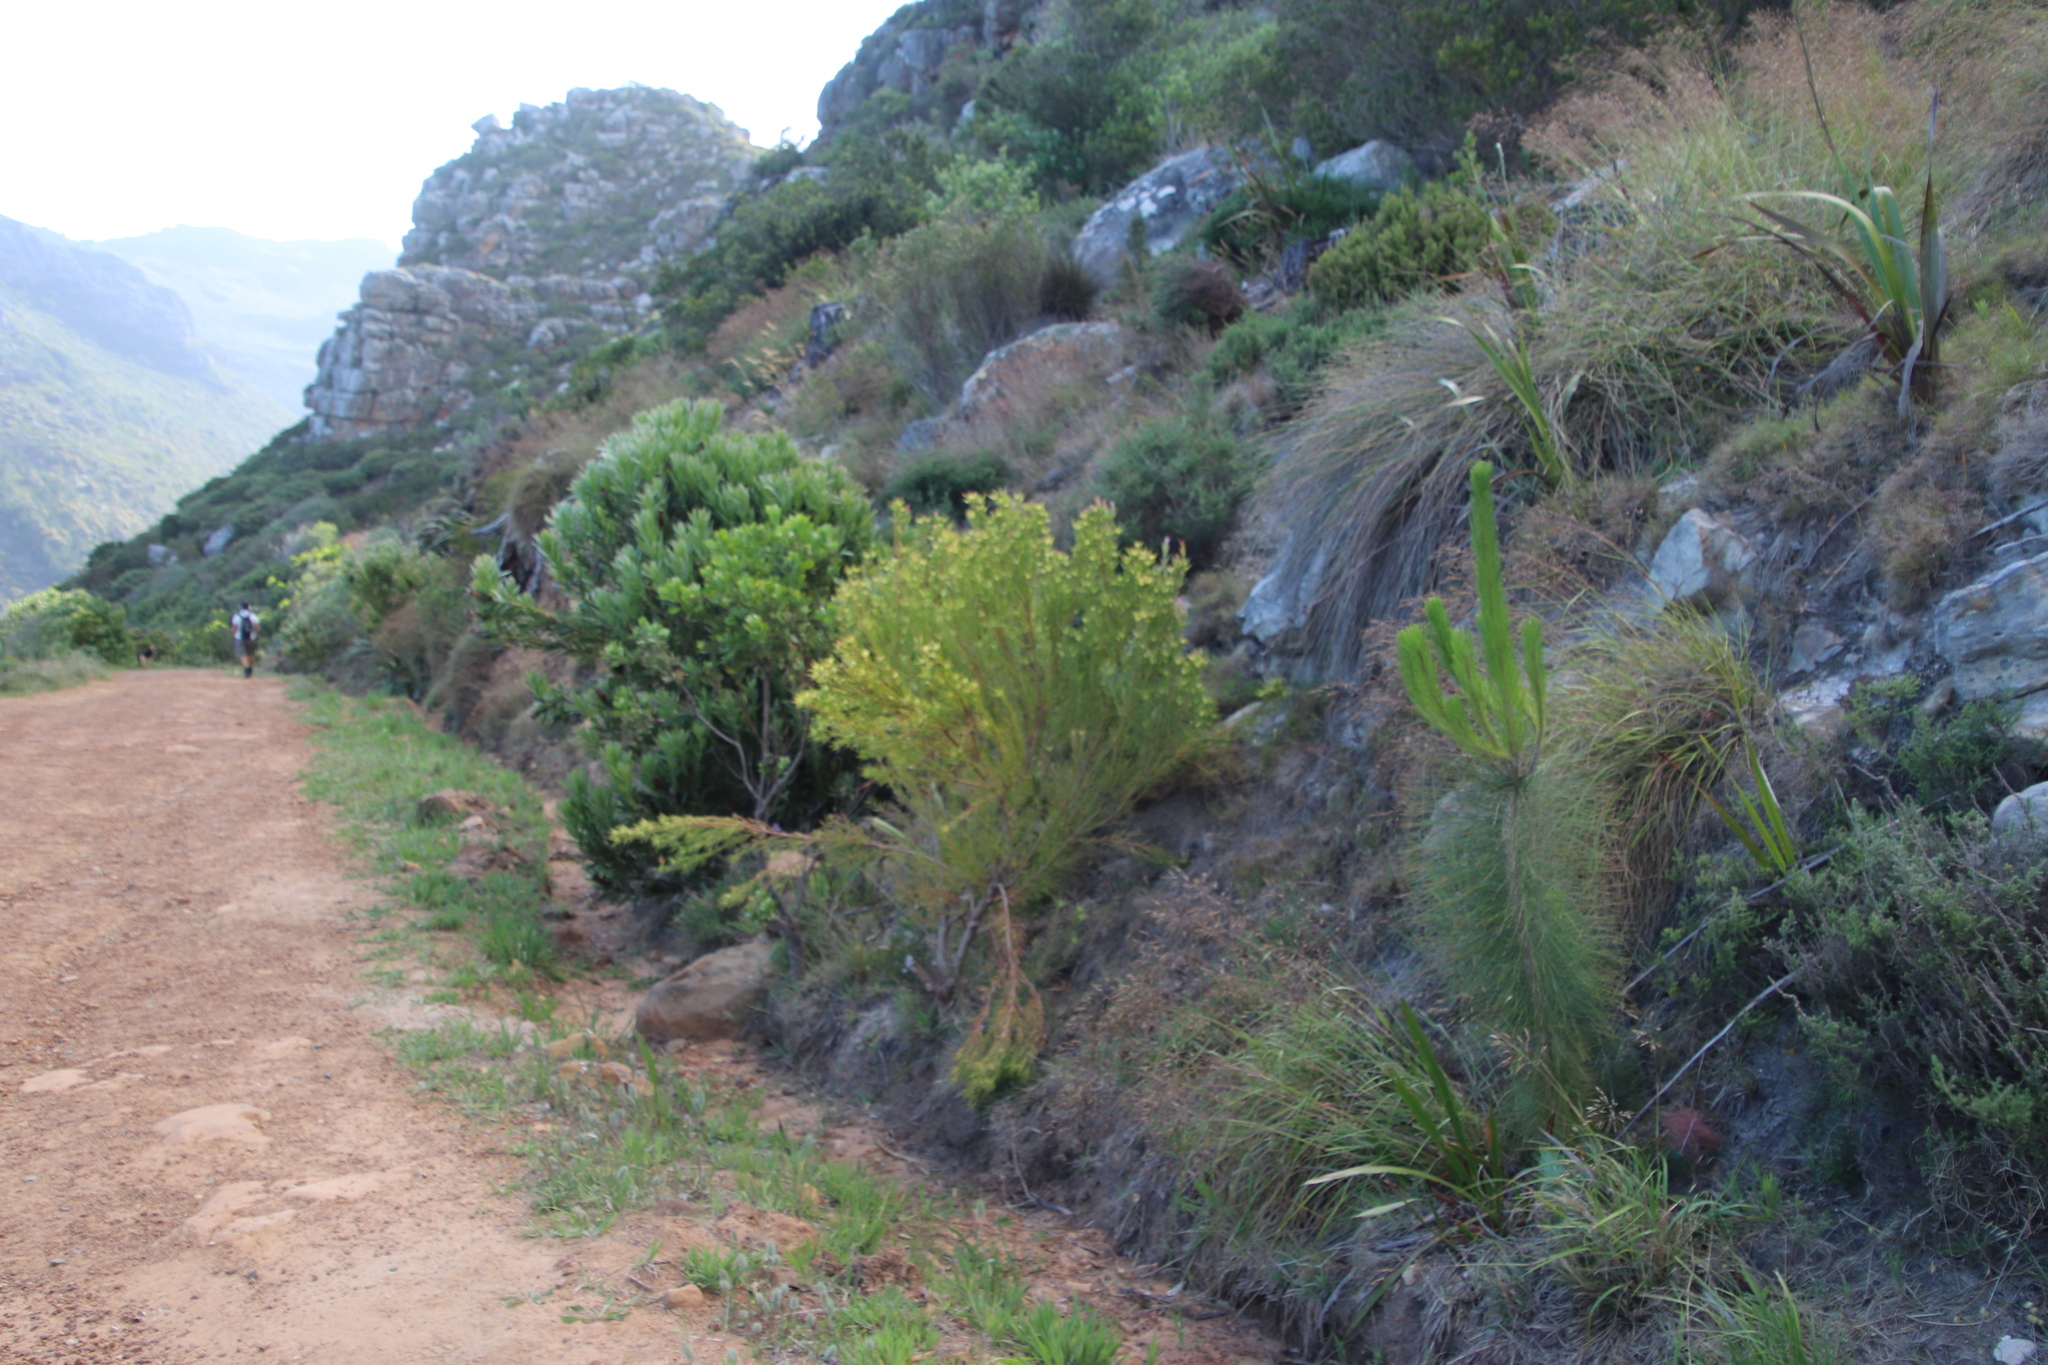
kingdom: Plantae
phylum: Tracheophyta
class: Magnoliopsida
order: Proteales
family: Proteaceae
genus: Leucadendron
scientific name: Leucadendron xanthoconus
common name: Sickle-leaf conebush
